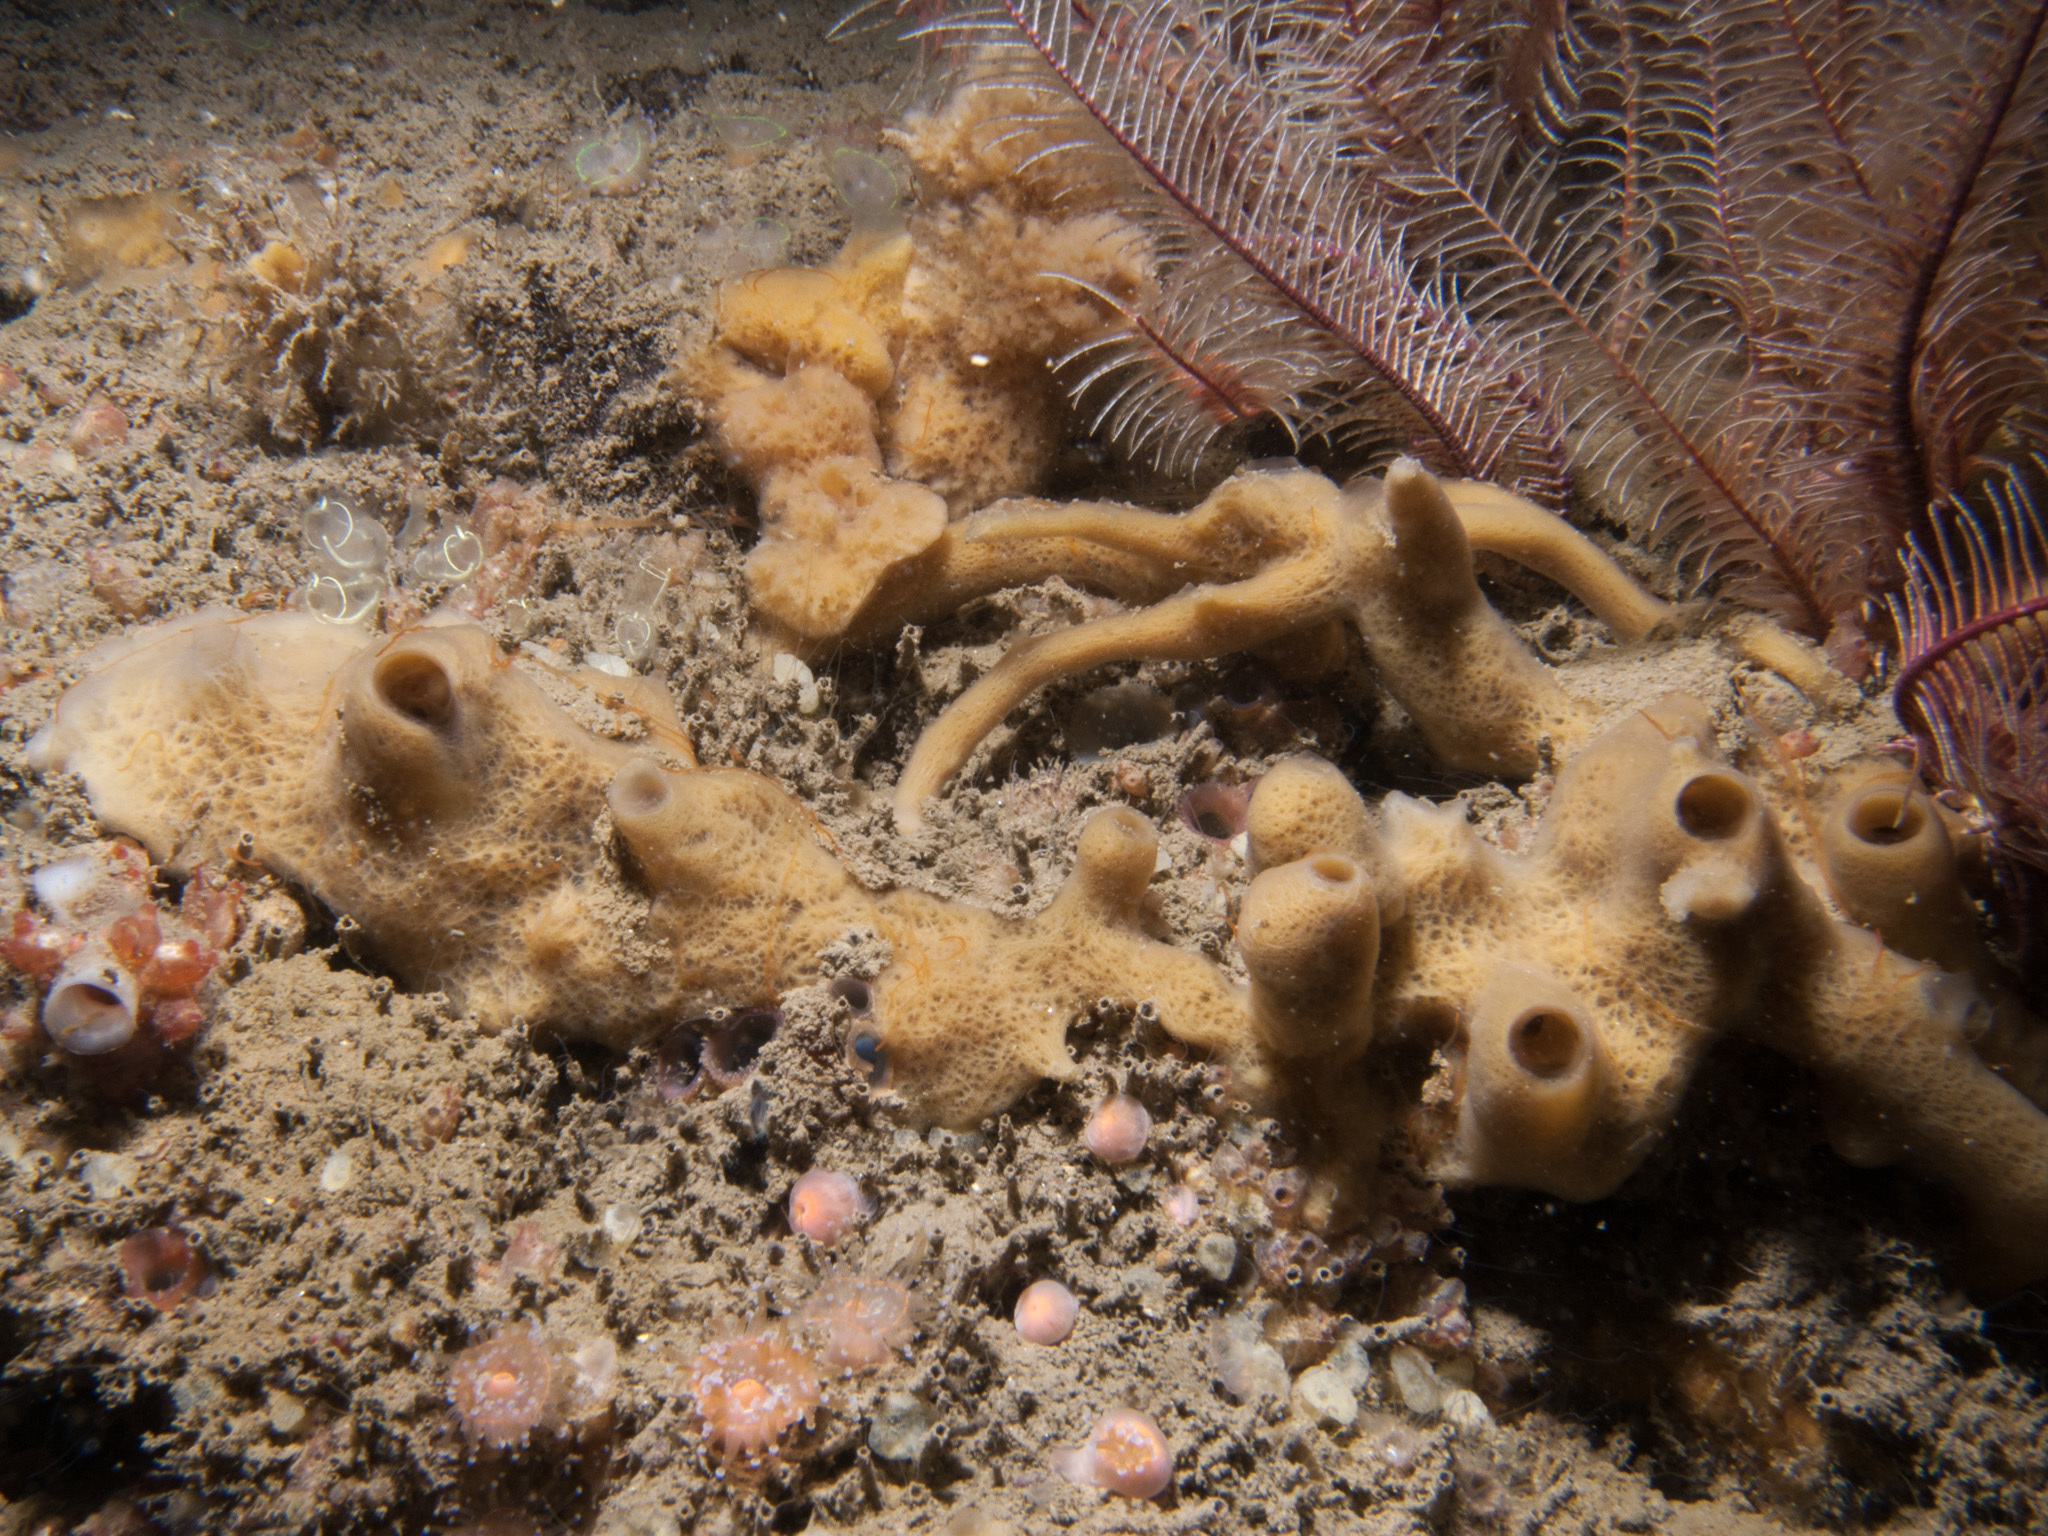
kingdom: Animalia
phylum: Porifera
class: Demospongiae
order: Haplosclerida
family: Chalinidae
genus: Haliclona
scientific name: Haliclona cinerea
